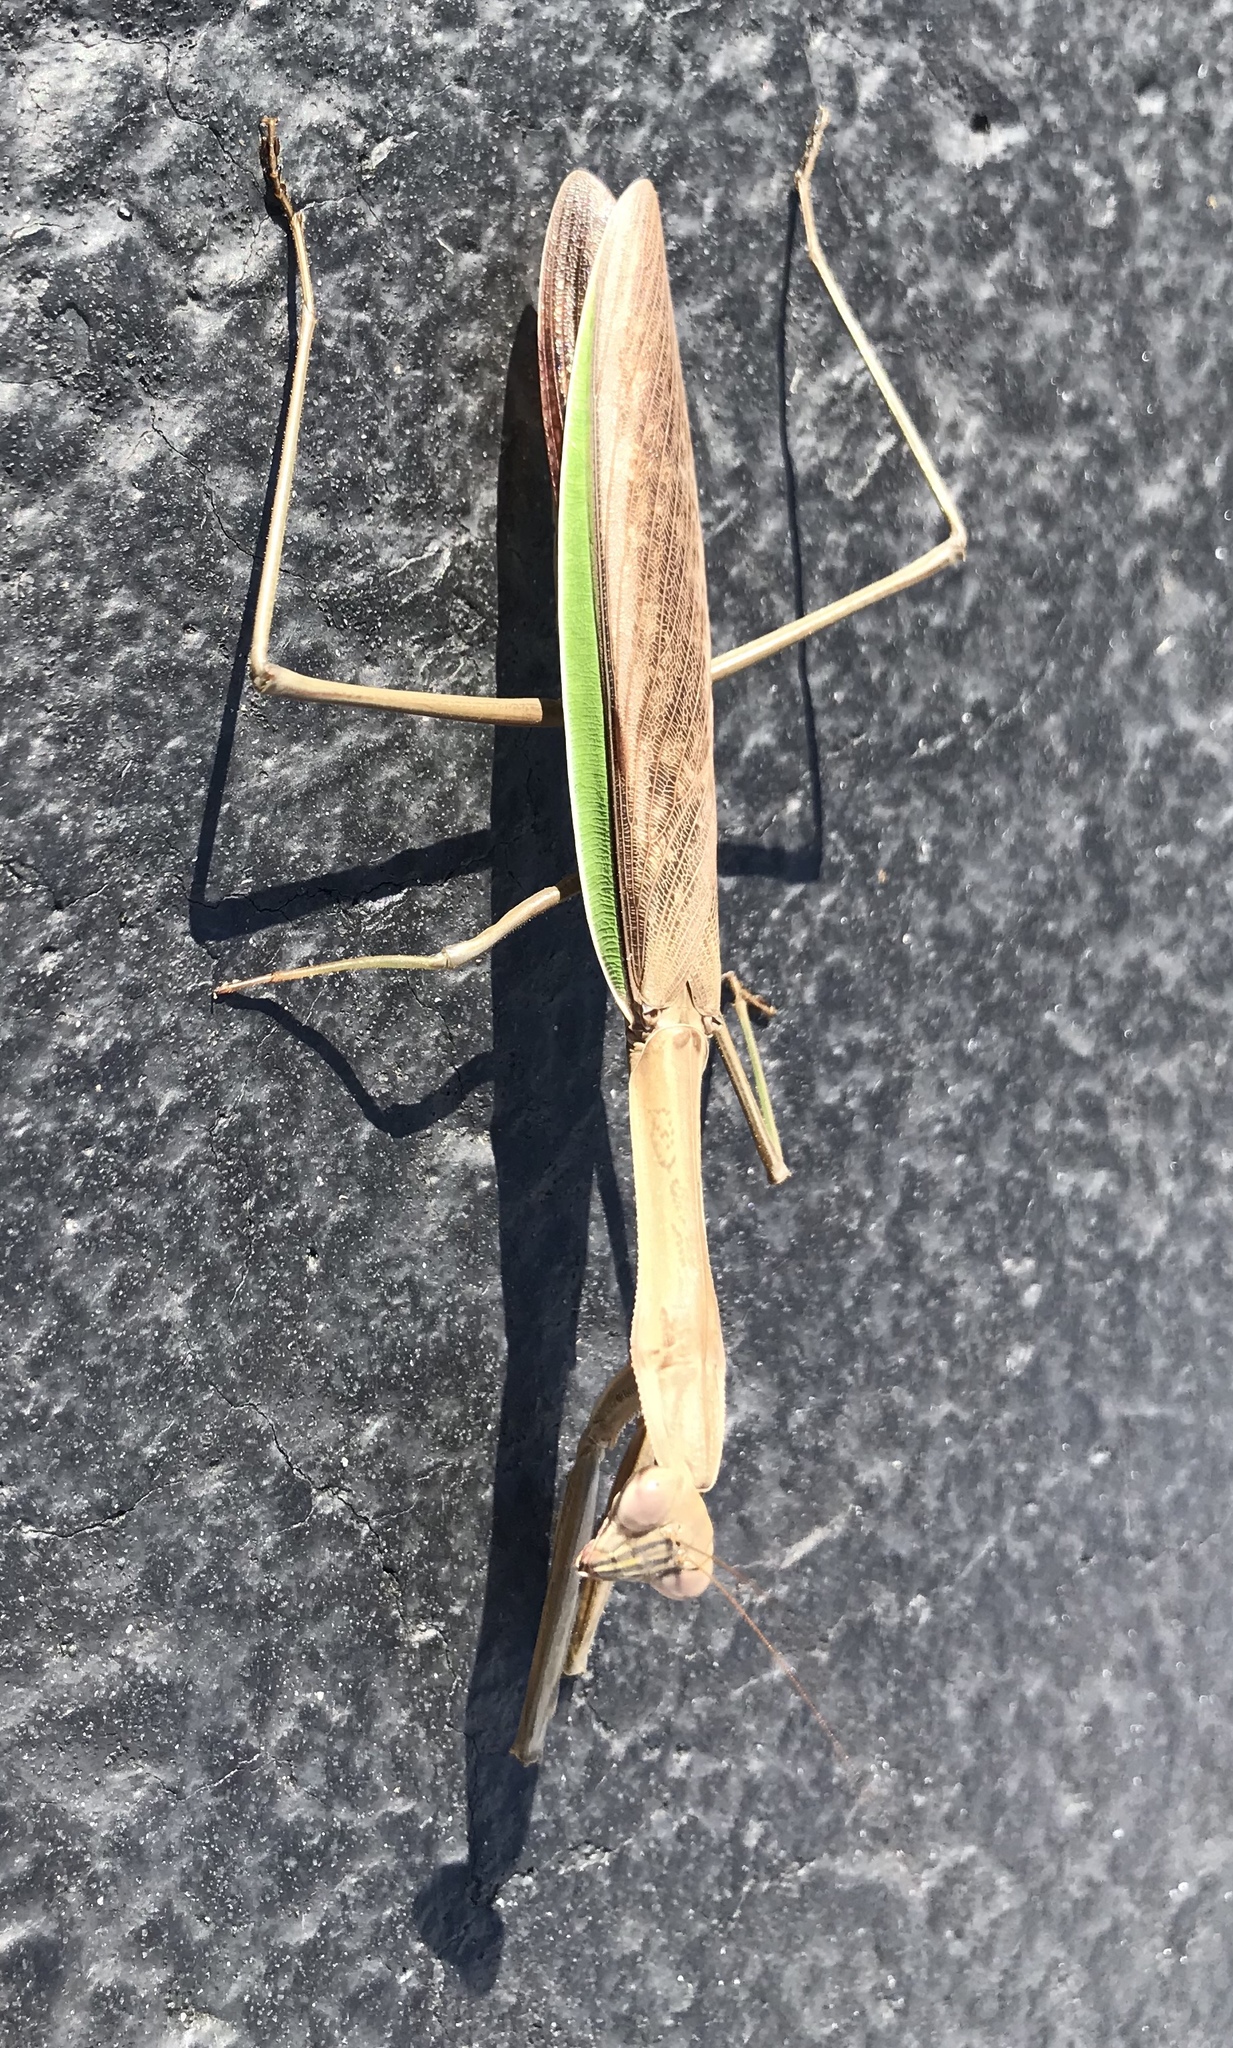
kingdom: Animalia
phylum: Arthropoda
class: Insecta
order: Mantodea
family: Mantidae
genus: Tenodera
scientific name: Tenodera sinensis
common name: Chinese mantis
